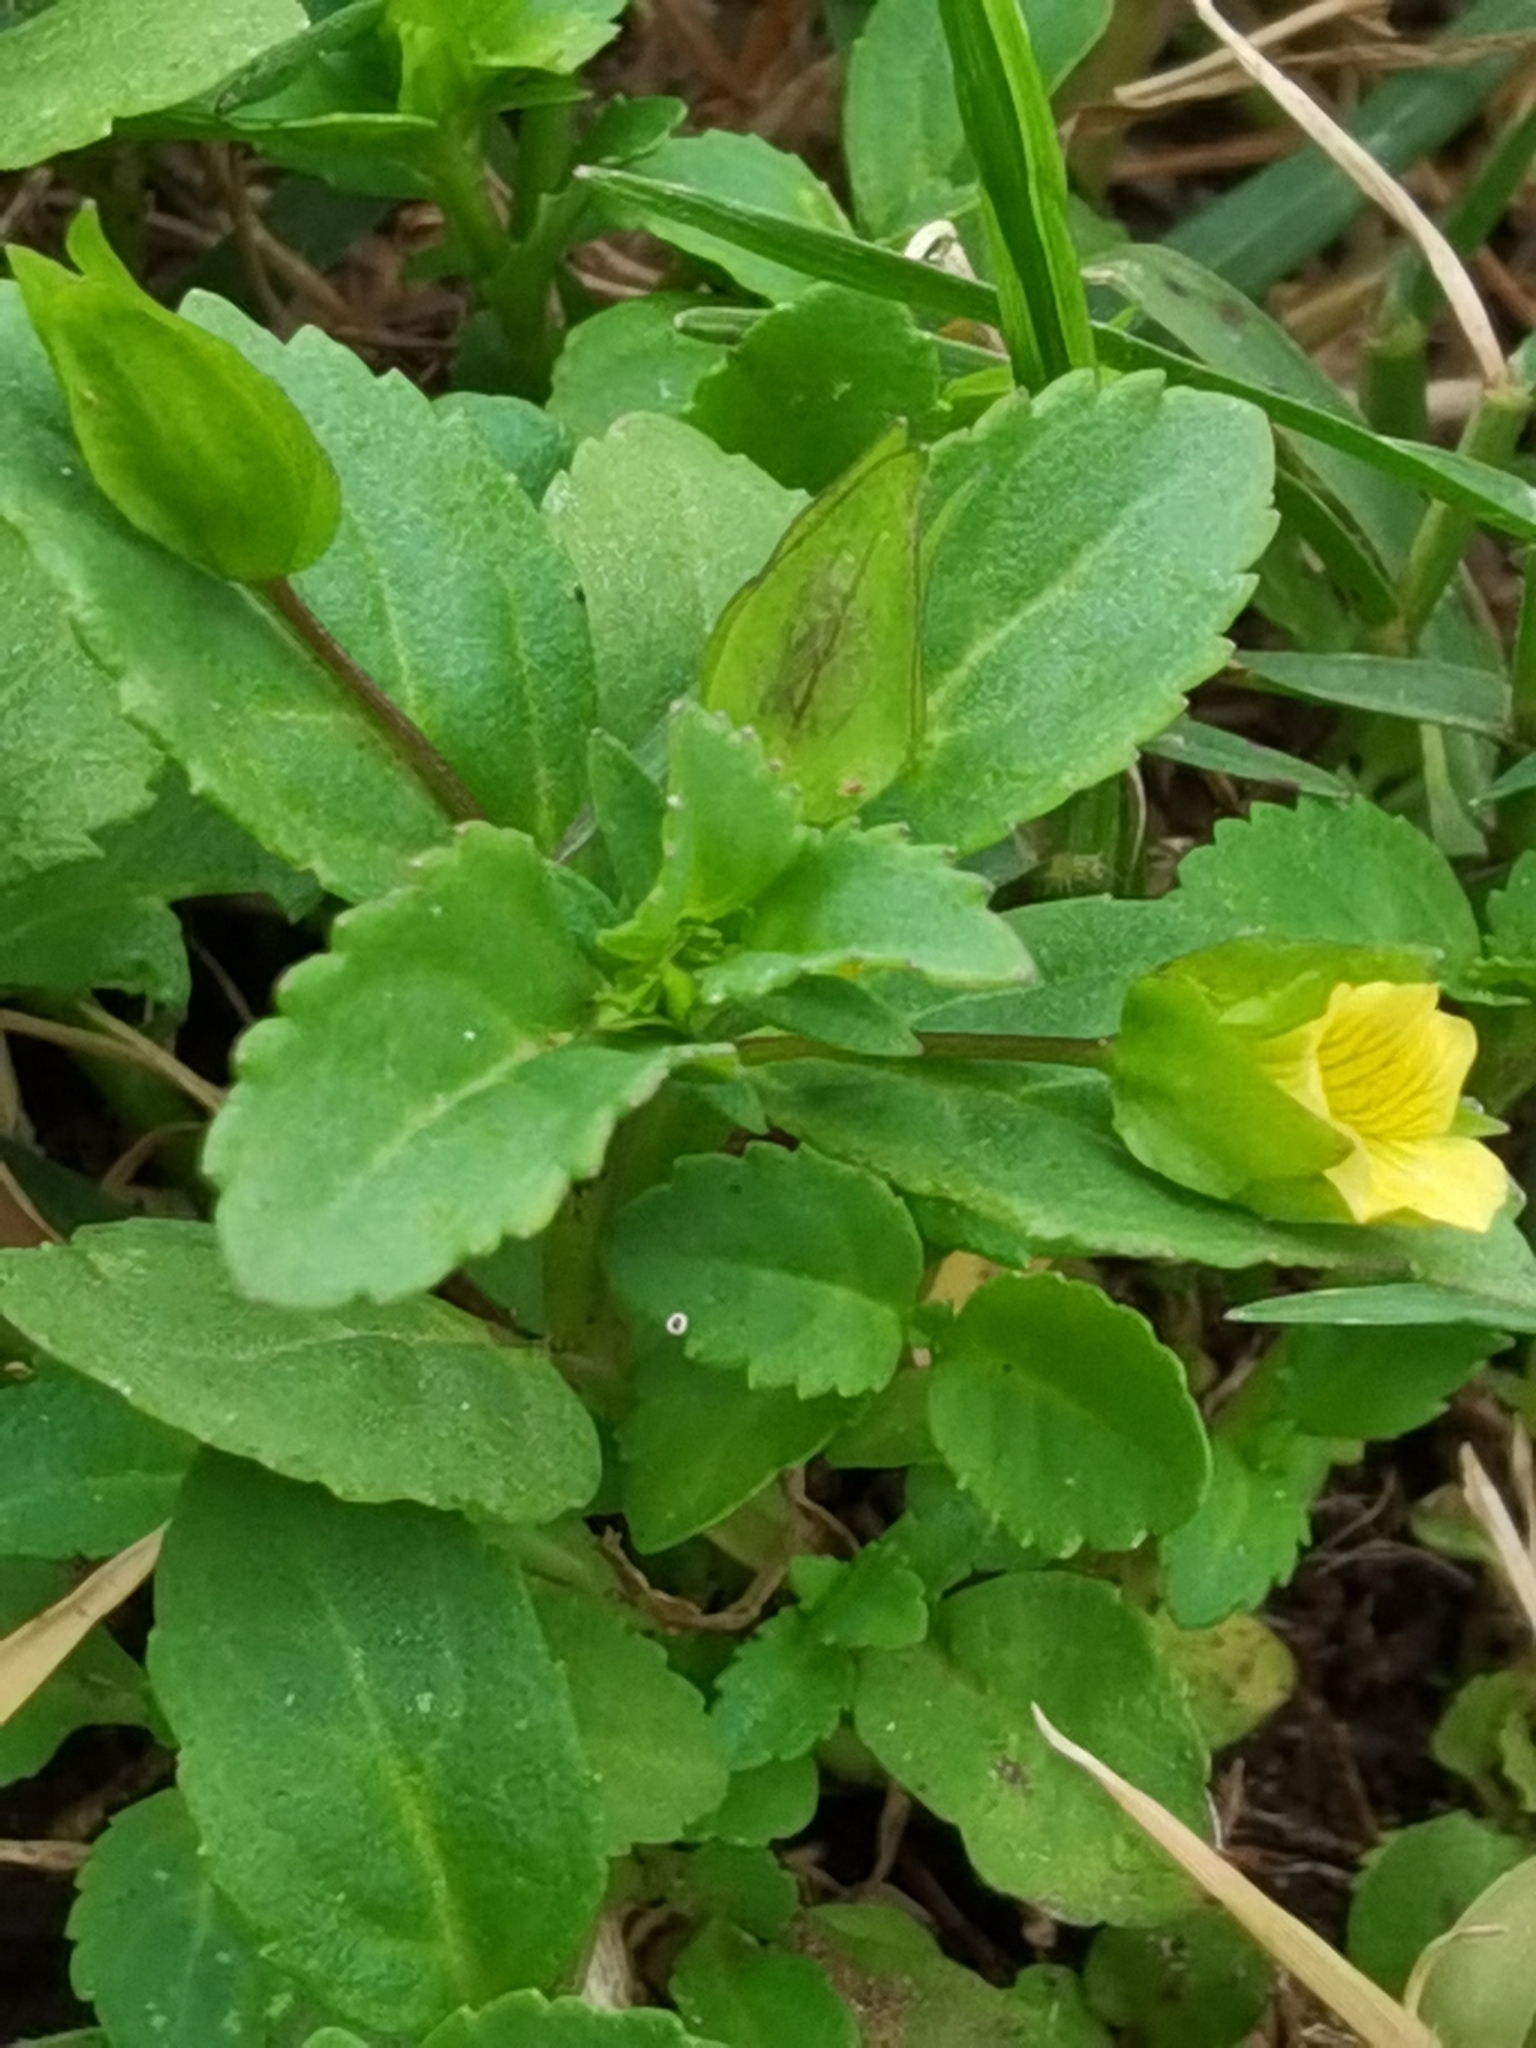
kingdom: Plantae
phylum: Tracheophyta
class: Magnoliopsida
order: Lamiales
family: Plantaginaceae
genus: Mecardonia
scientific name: Mecardonia procumbens
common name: Baby jump-up
